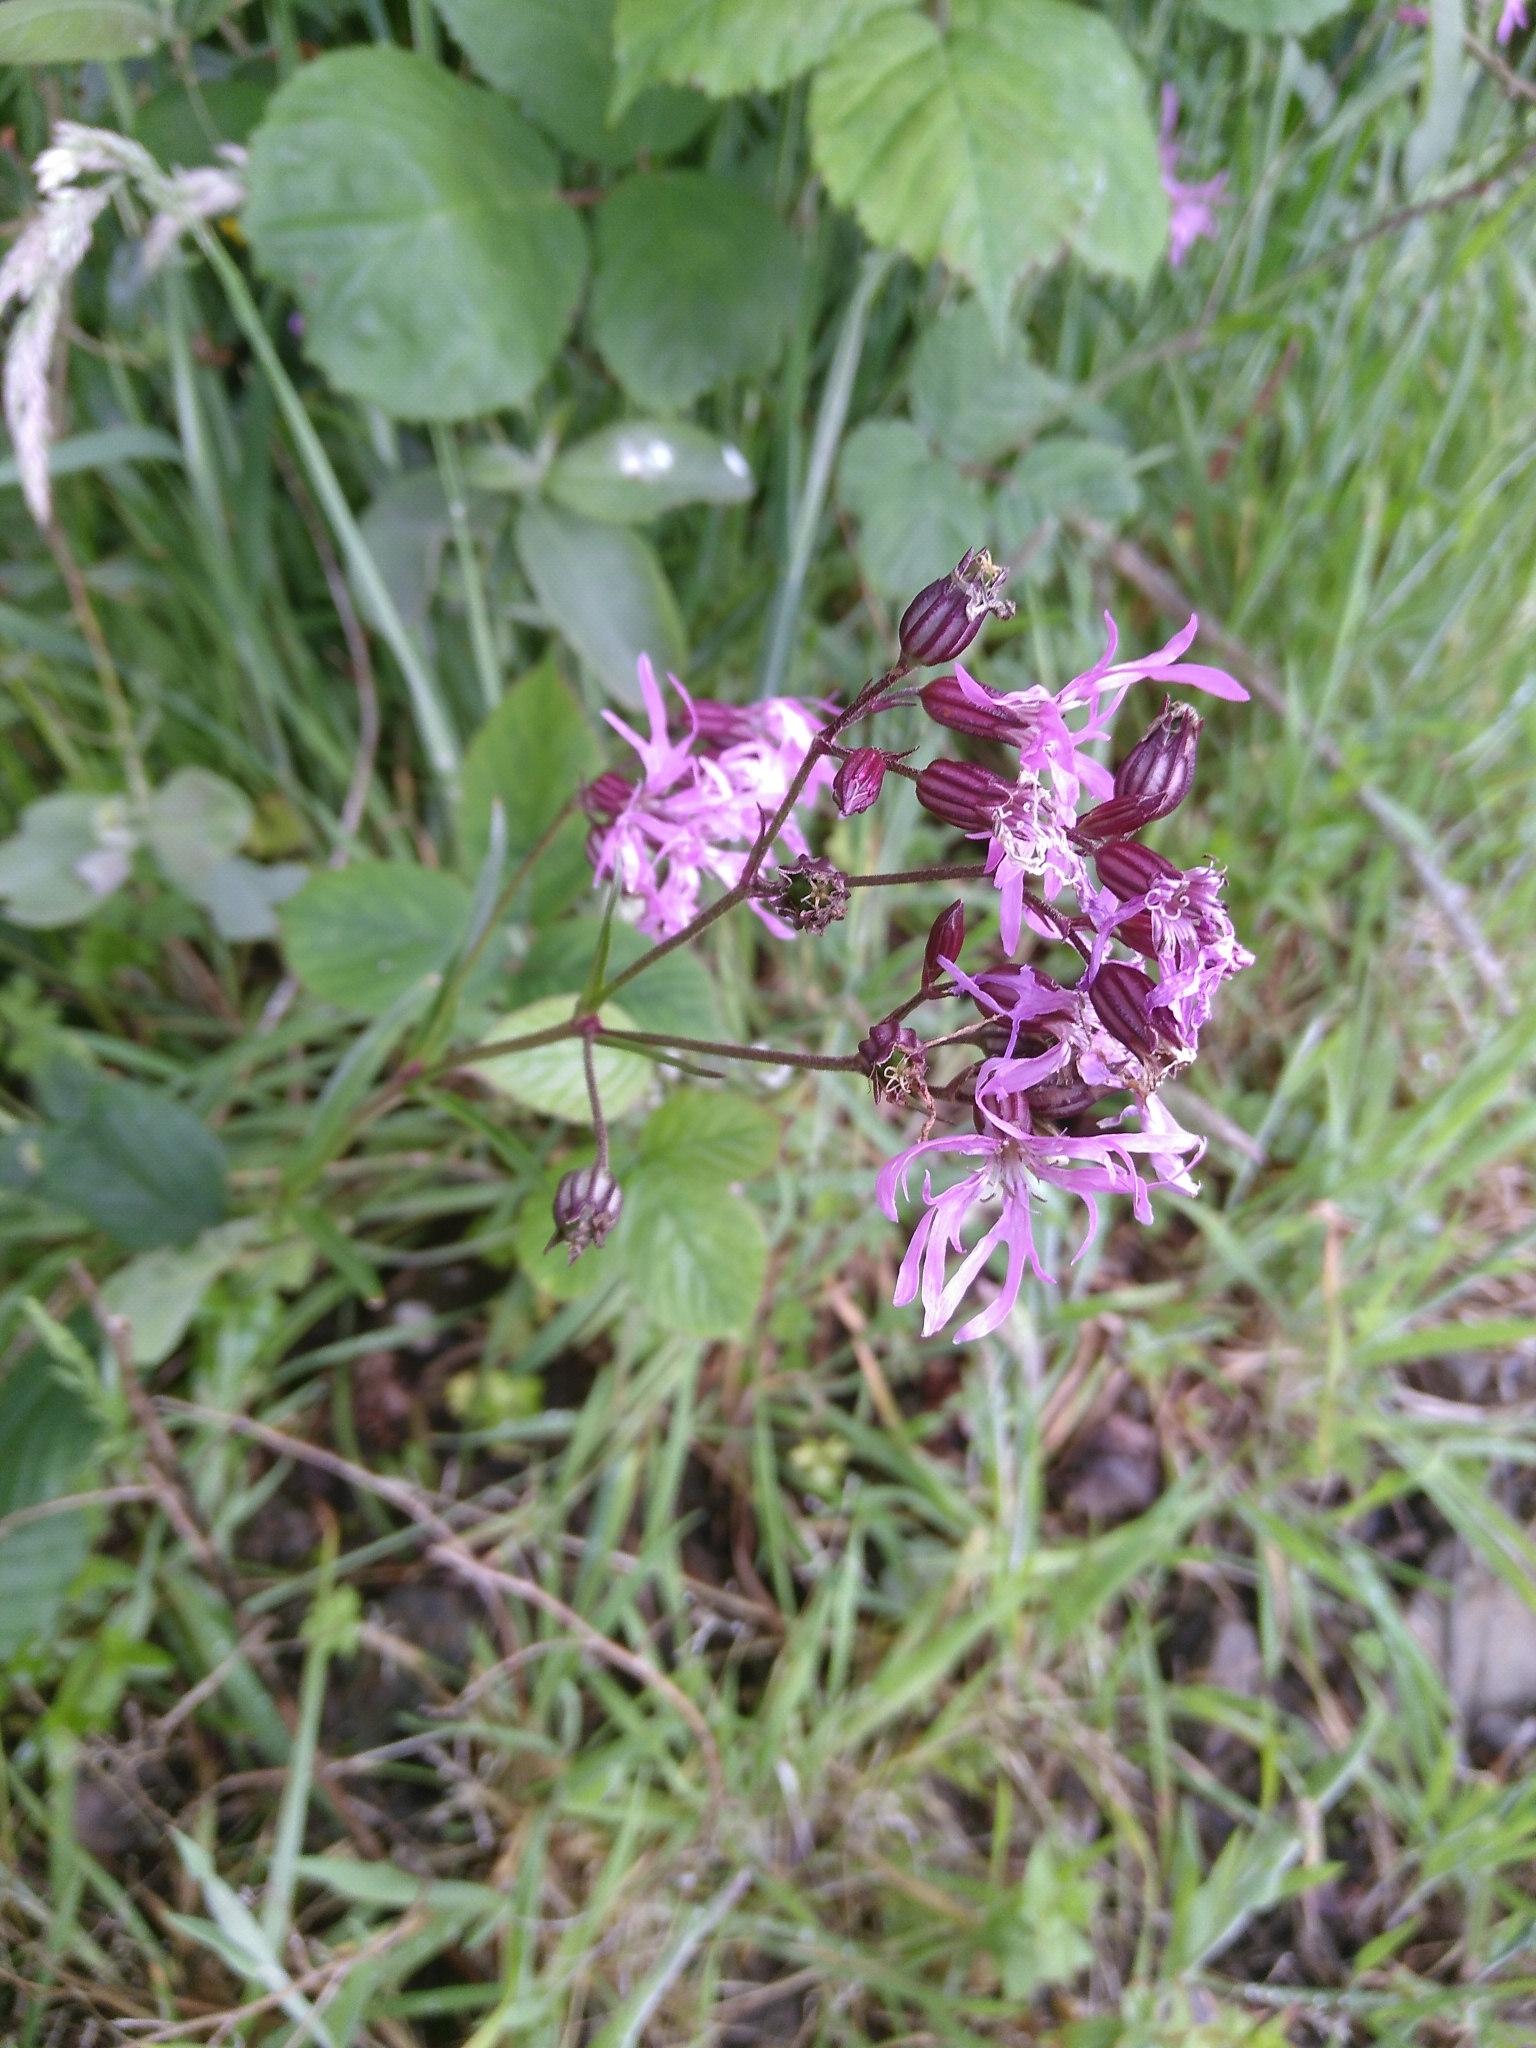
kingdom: Plantae
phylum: Tracheophyta
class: Magnoliopsida
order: Caryophyllales
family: Caryophyllaceae
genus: Silene
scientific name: Silene flos-cuculi
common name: Ragged-robin
